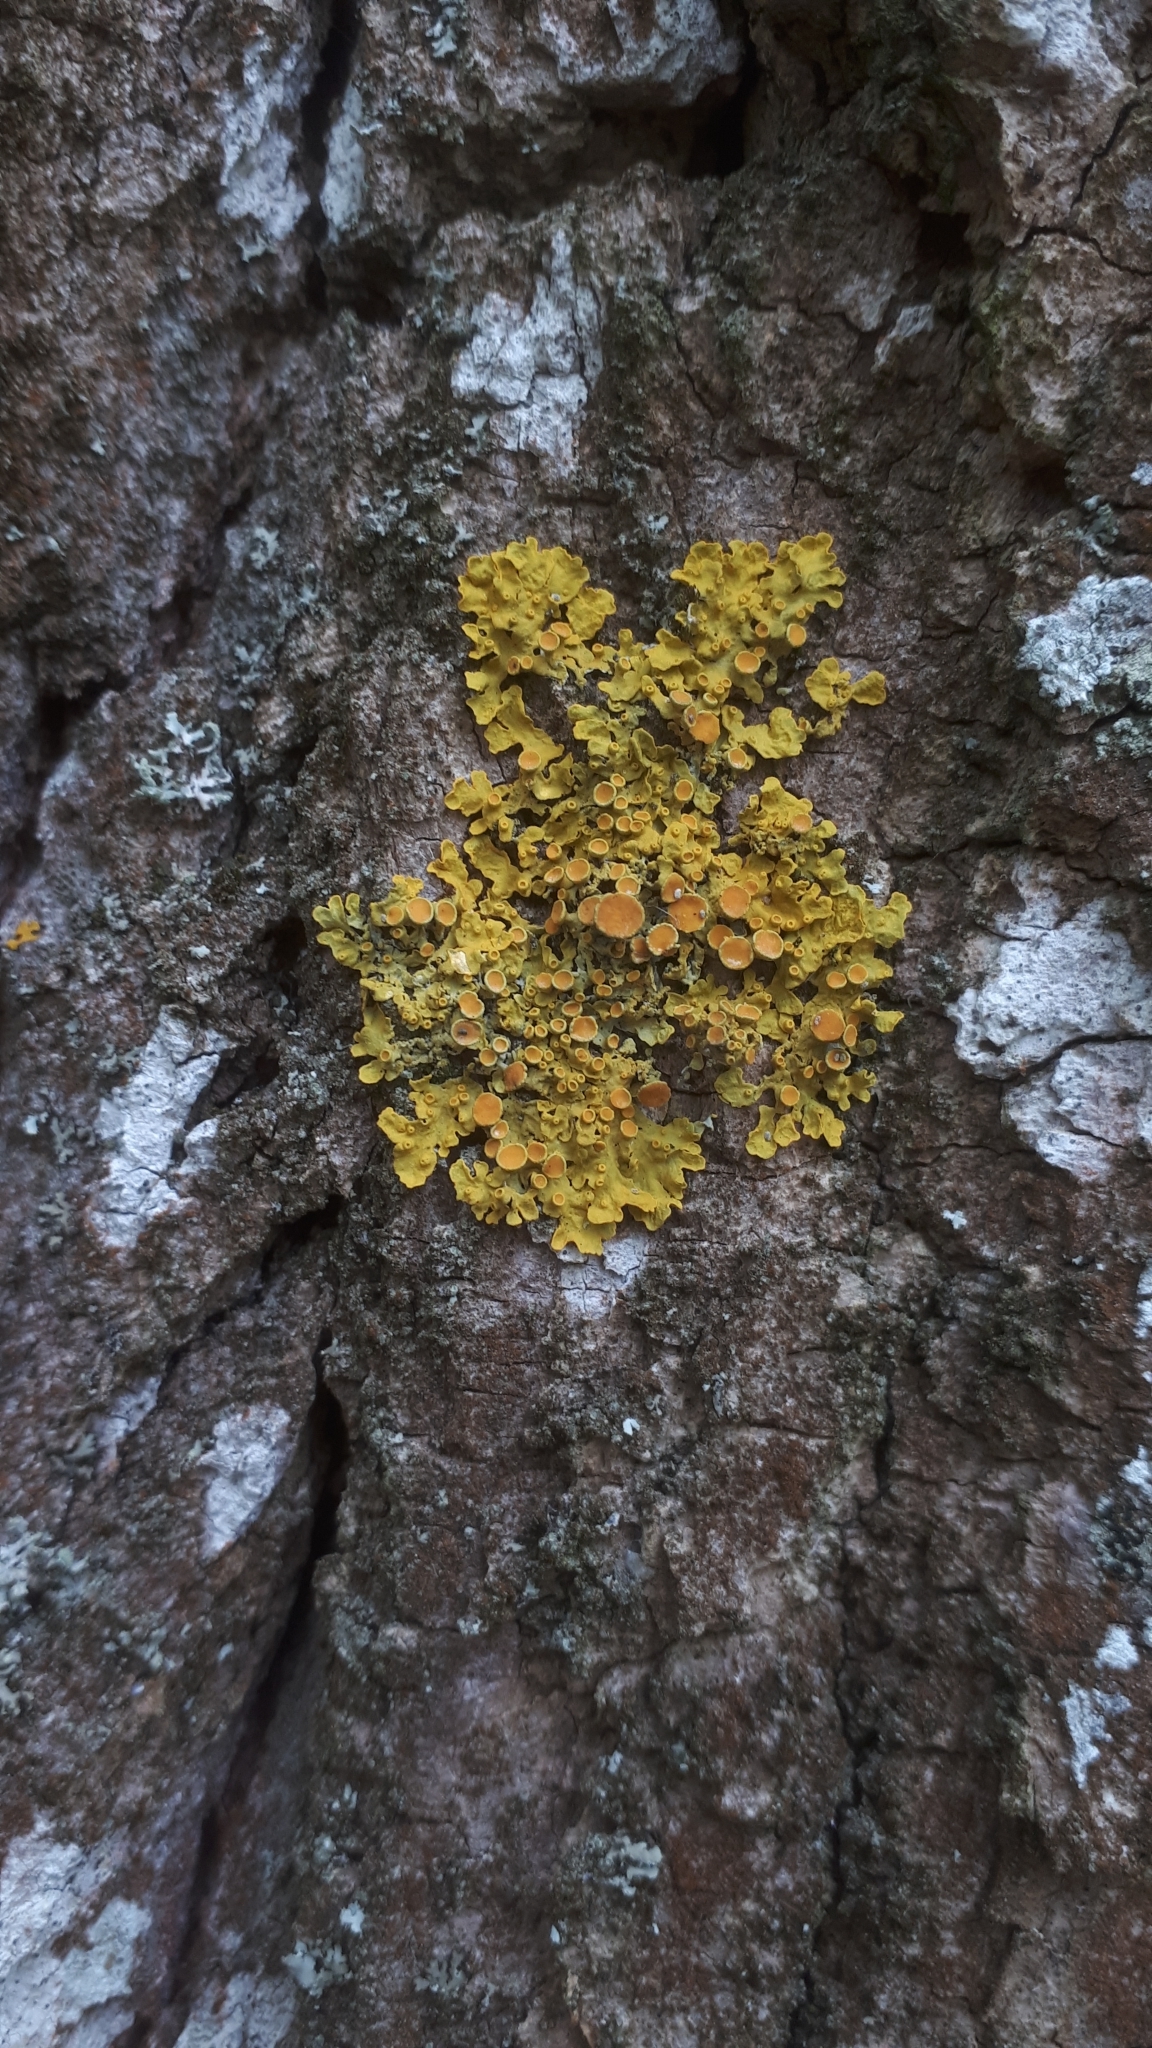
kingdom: Fungi
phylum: Ascomycota
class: Lecanoromycetes
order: Teloschistales
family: Teloschistaceae
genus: Xanthoria
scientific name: Xanthoria parietina
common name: Common orange lichen
